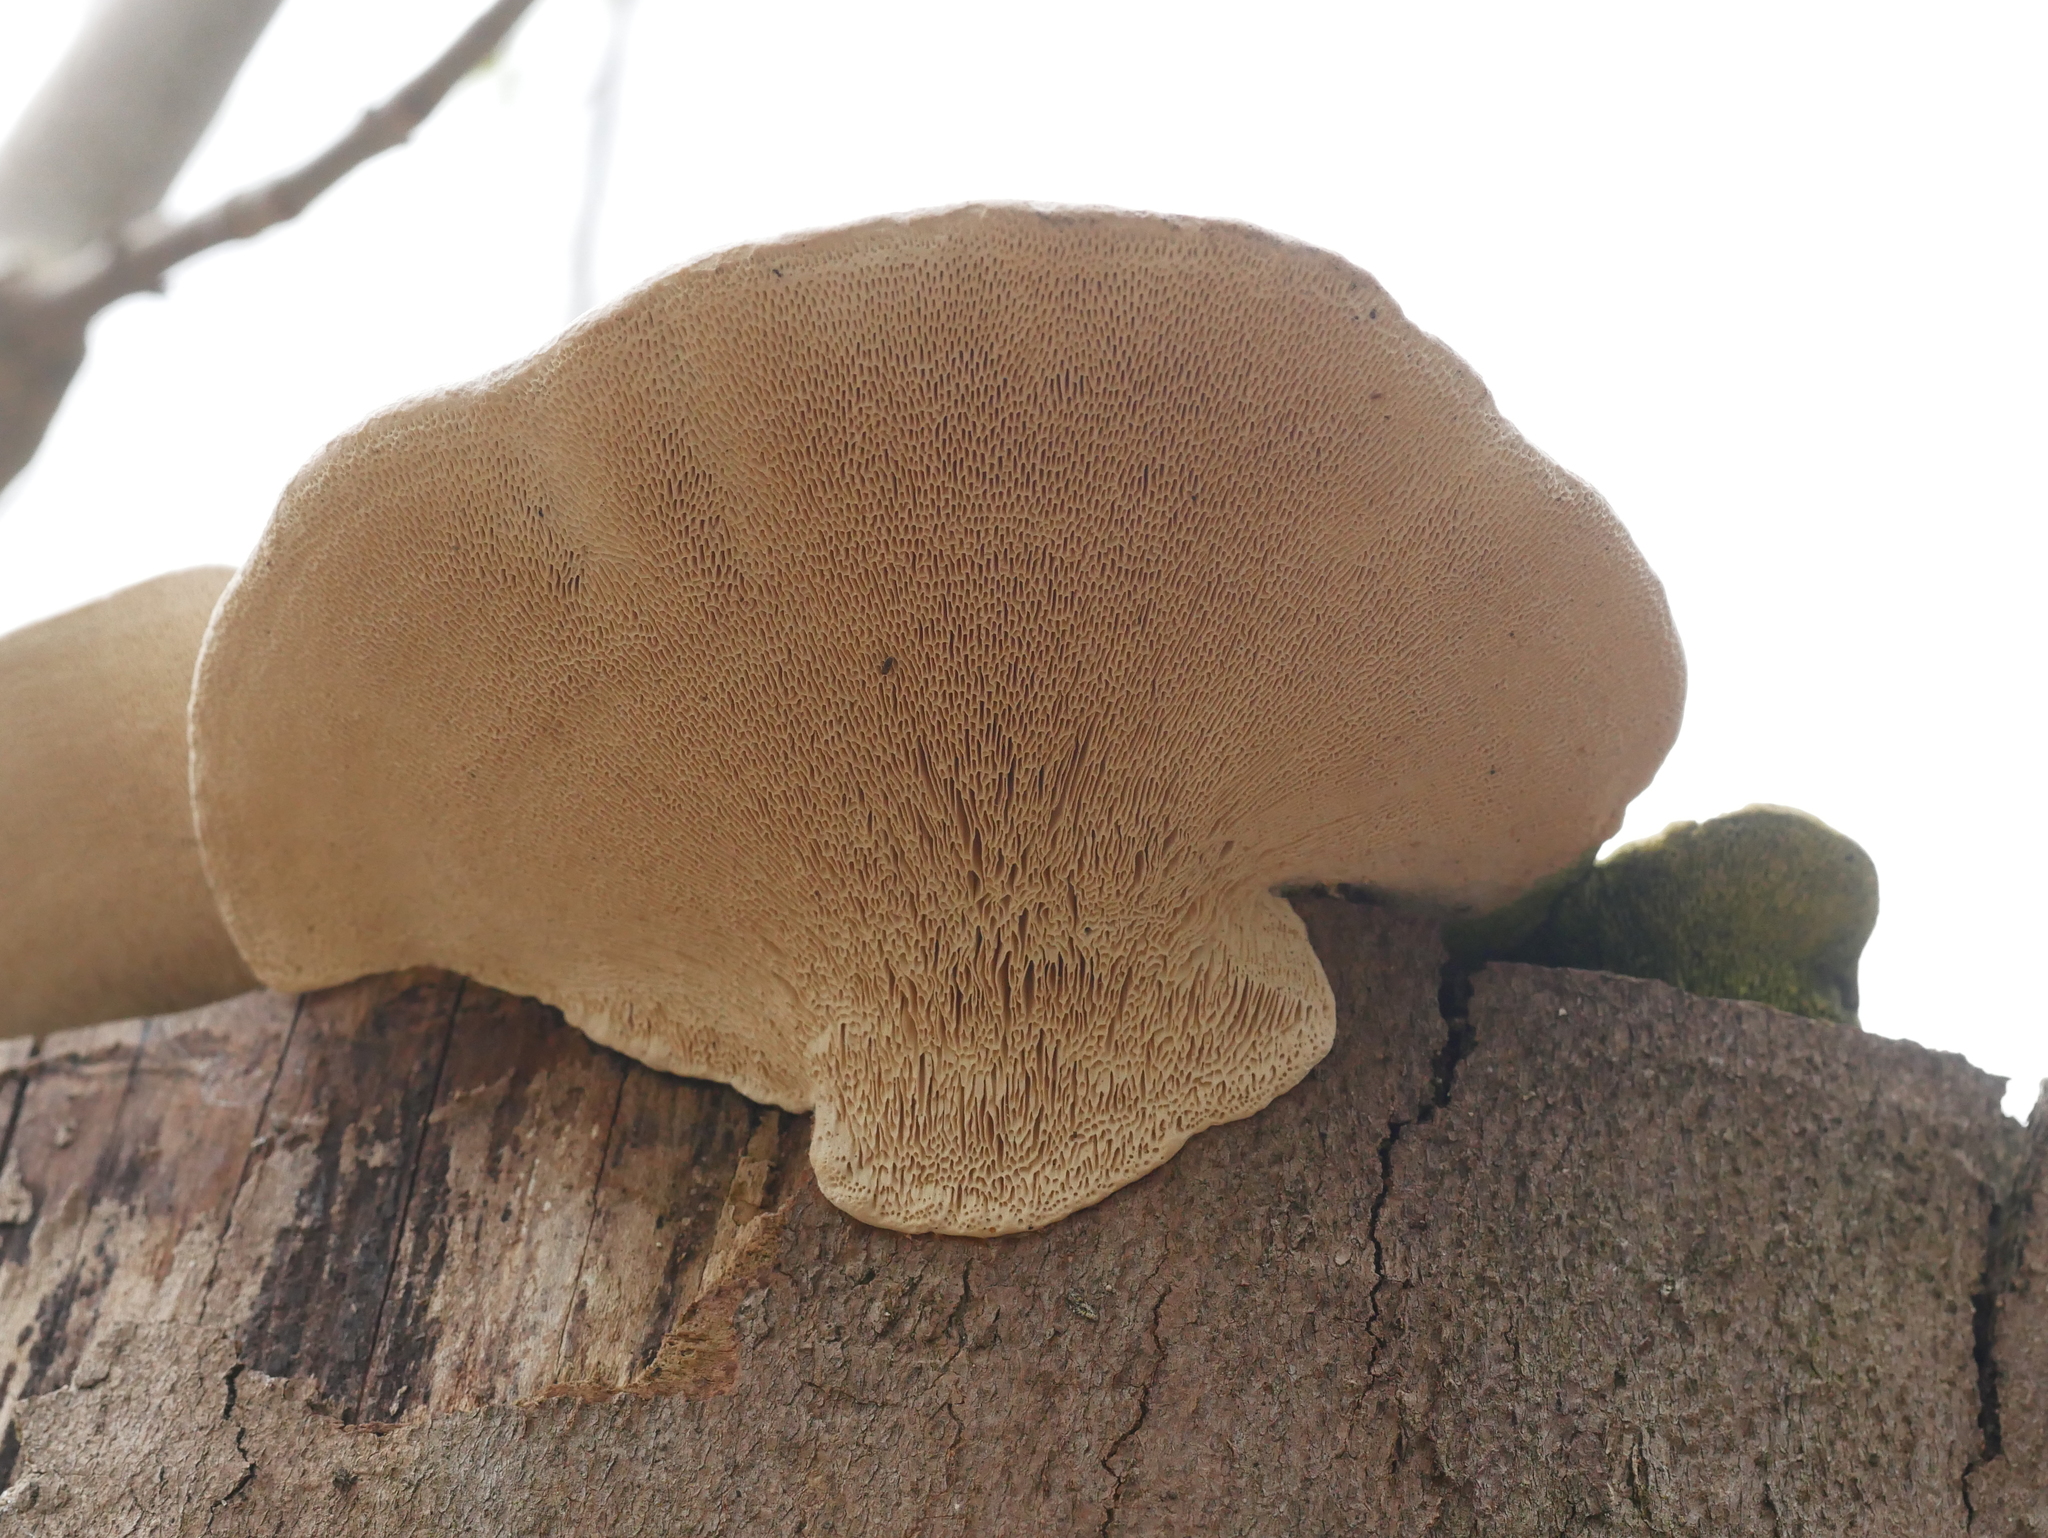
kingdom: Fungi
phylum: Basidiomycota
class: Agaricomycetes
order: Polyporales
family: Polyporaceae
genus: Trametes
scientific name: Trametes gibbosa
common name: Lumpy bracket
